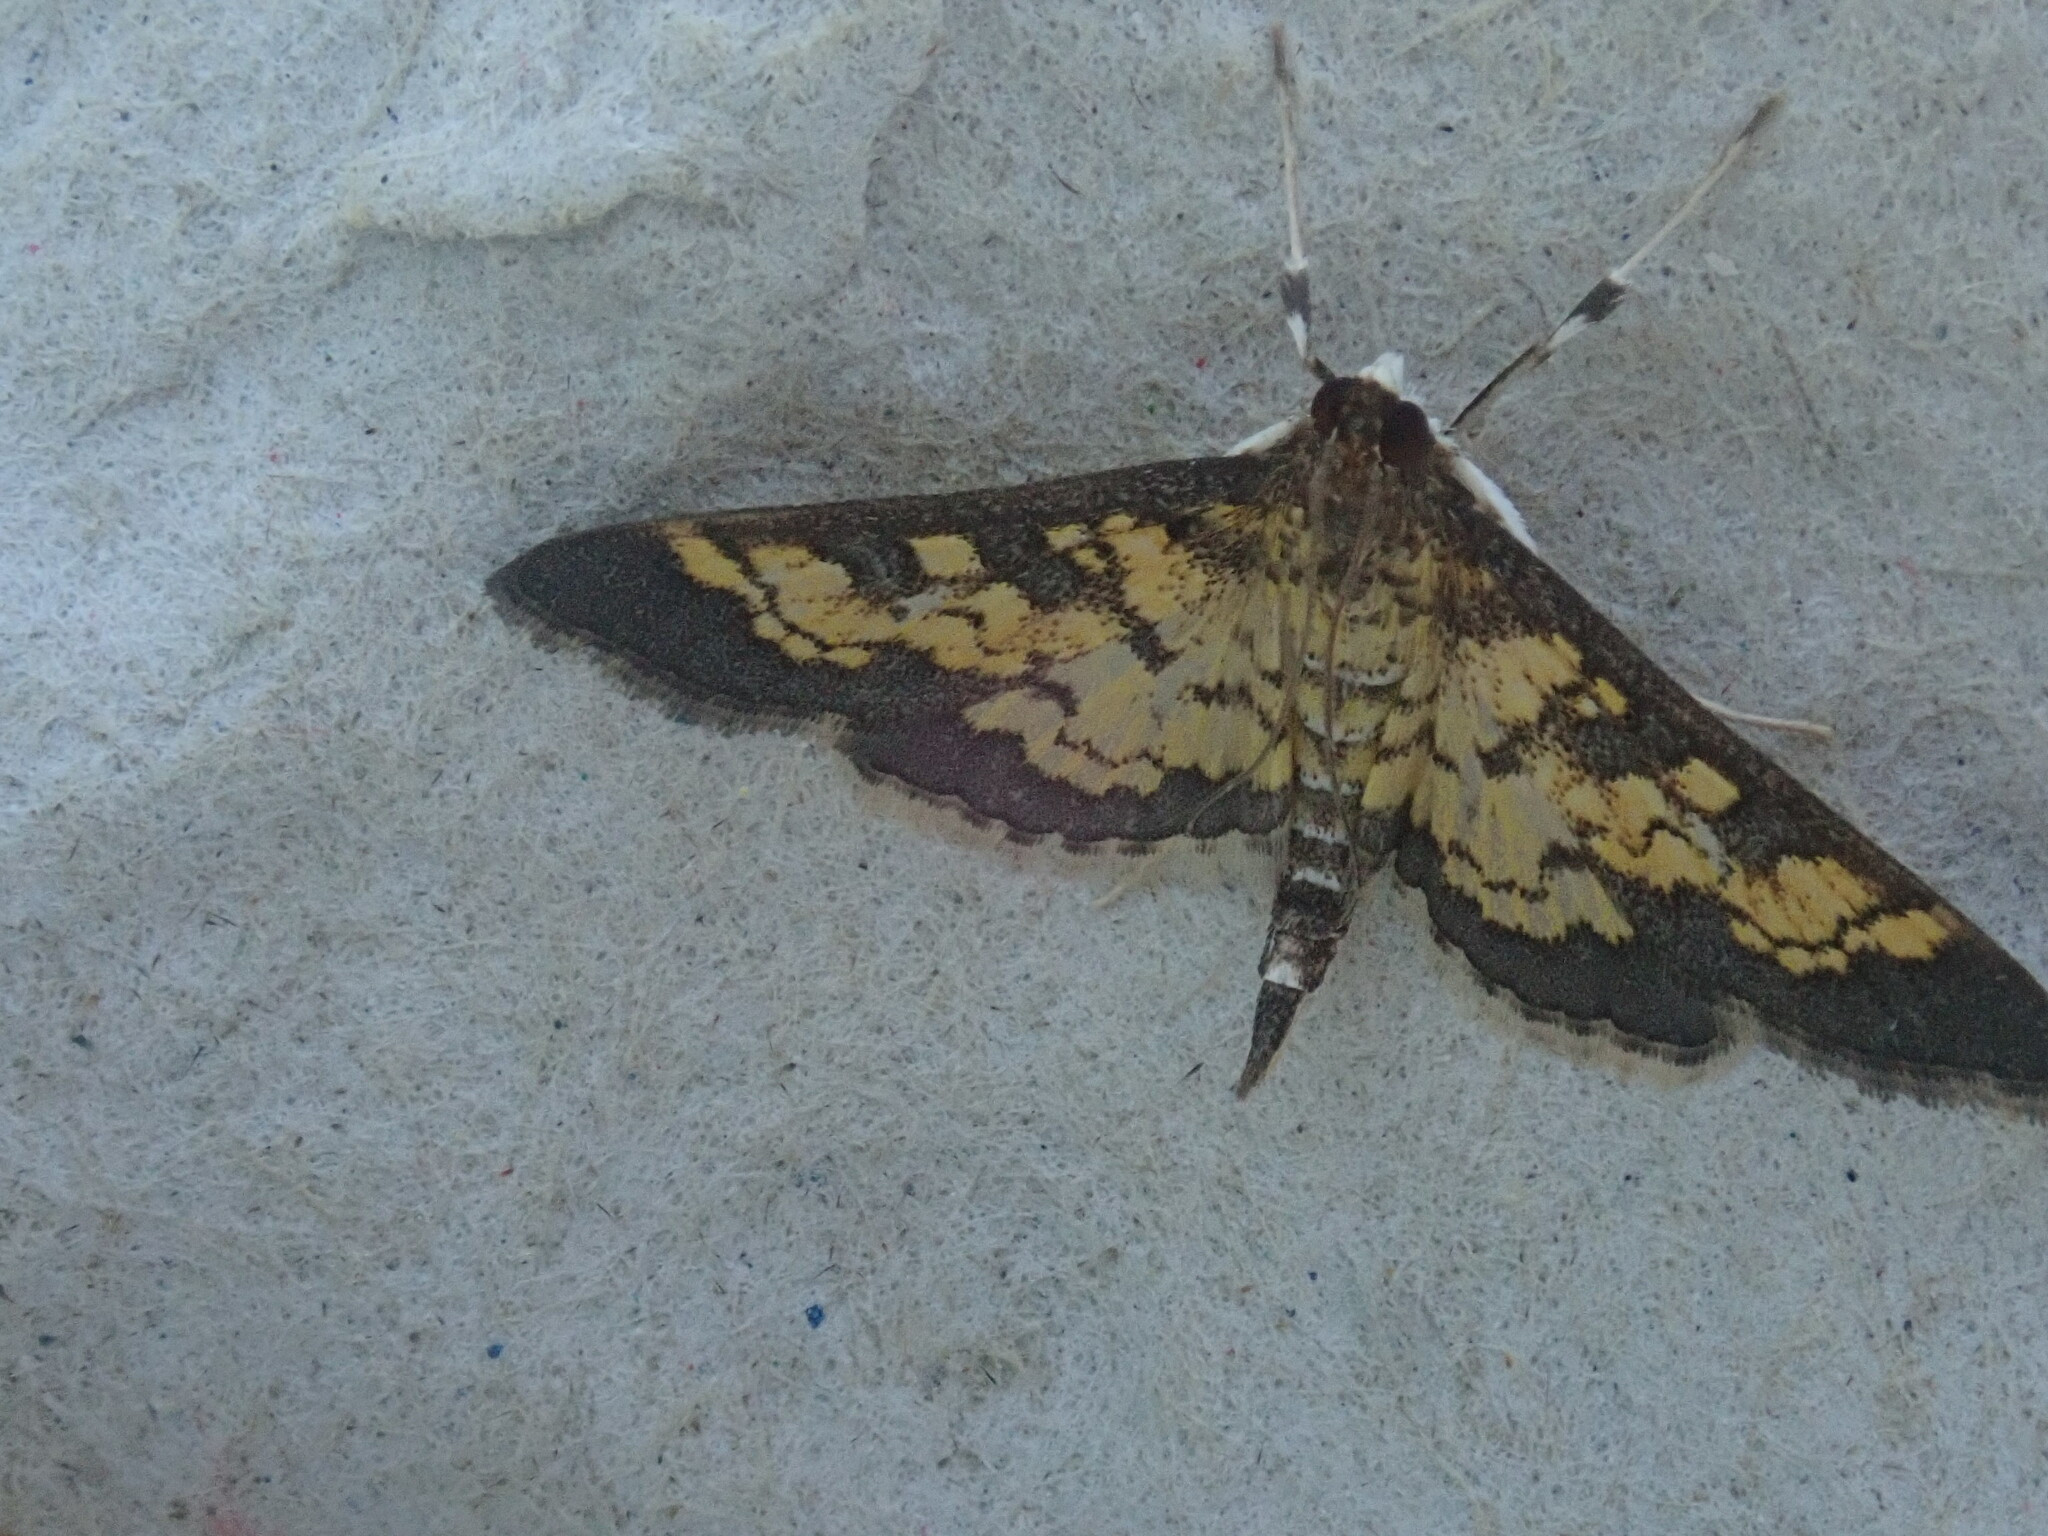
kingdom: Animalia
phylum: Arthropoda
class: Insecta
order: Lepidoptera
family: Crambidae
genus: Epipagis
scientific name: Epipagis adipaloides
